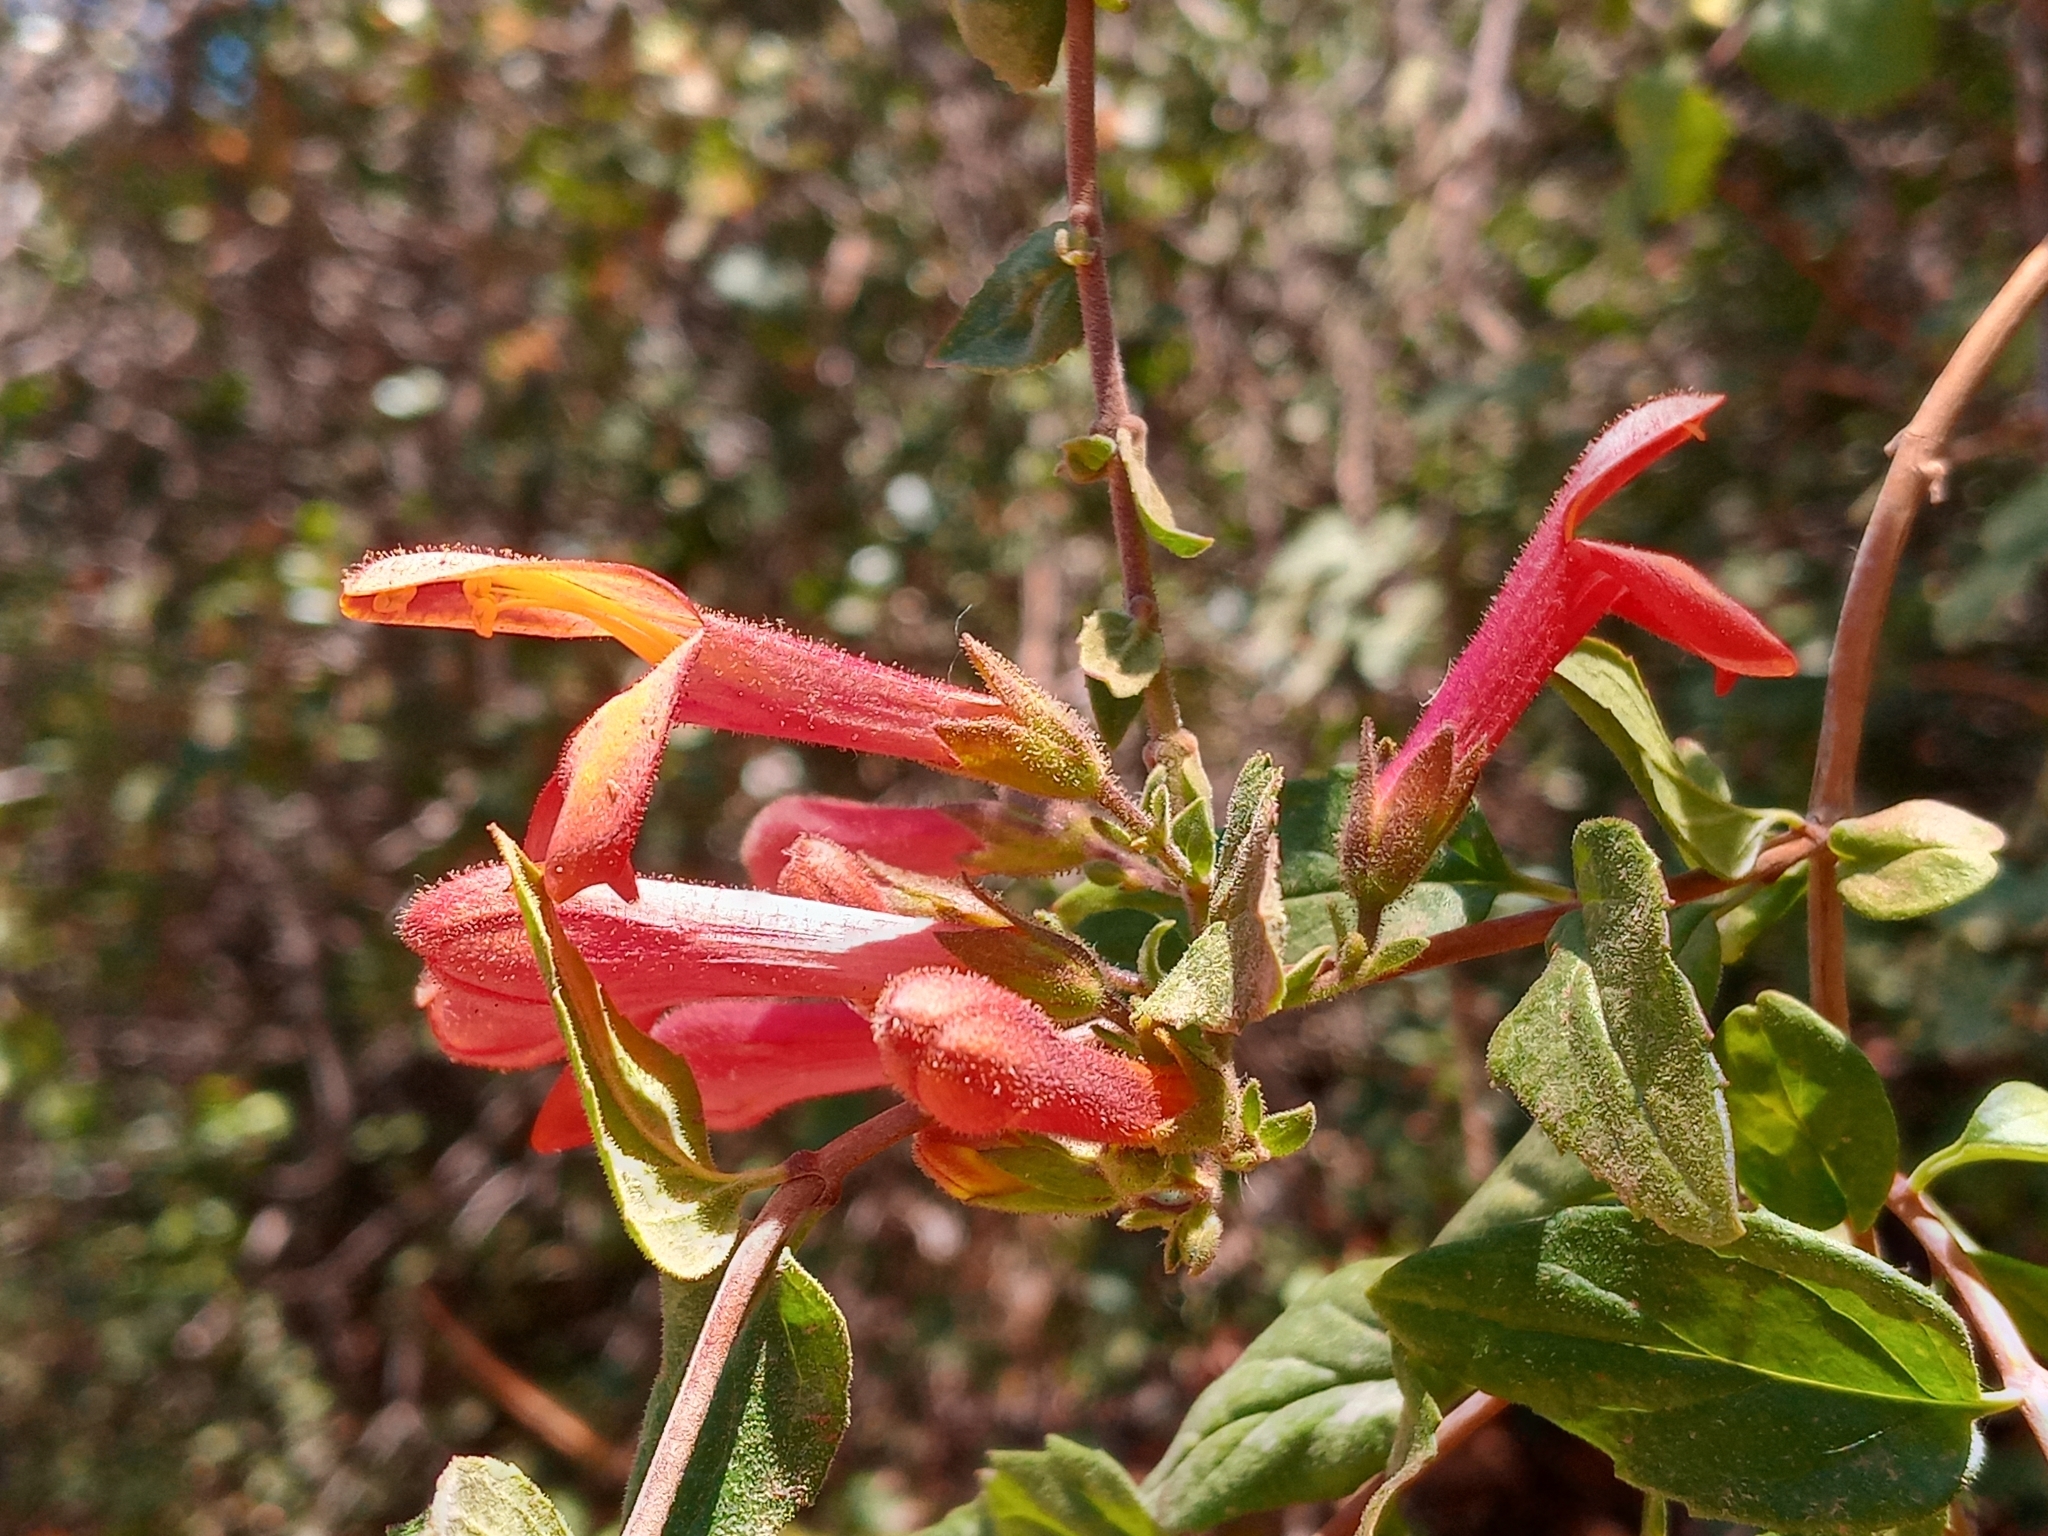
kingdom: Plantae
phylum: Tracheophyta
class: Magnoliopsida
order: Lamiales
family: Plantaginaceae
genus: Keckiella
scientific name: Keckiella cordifolia
